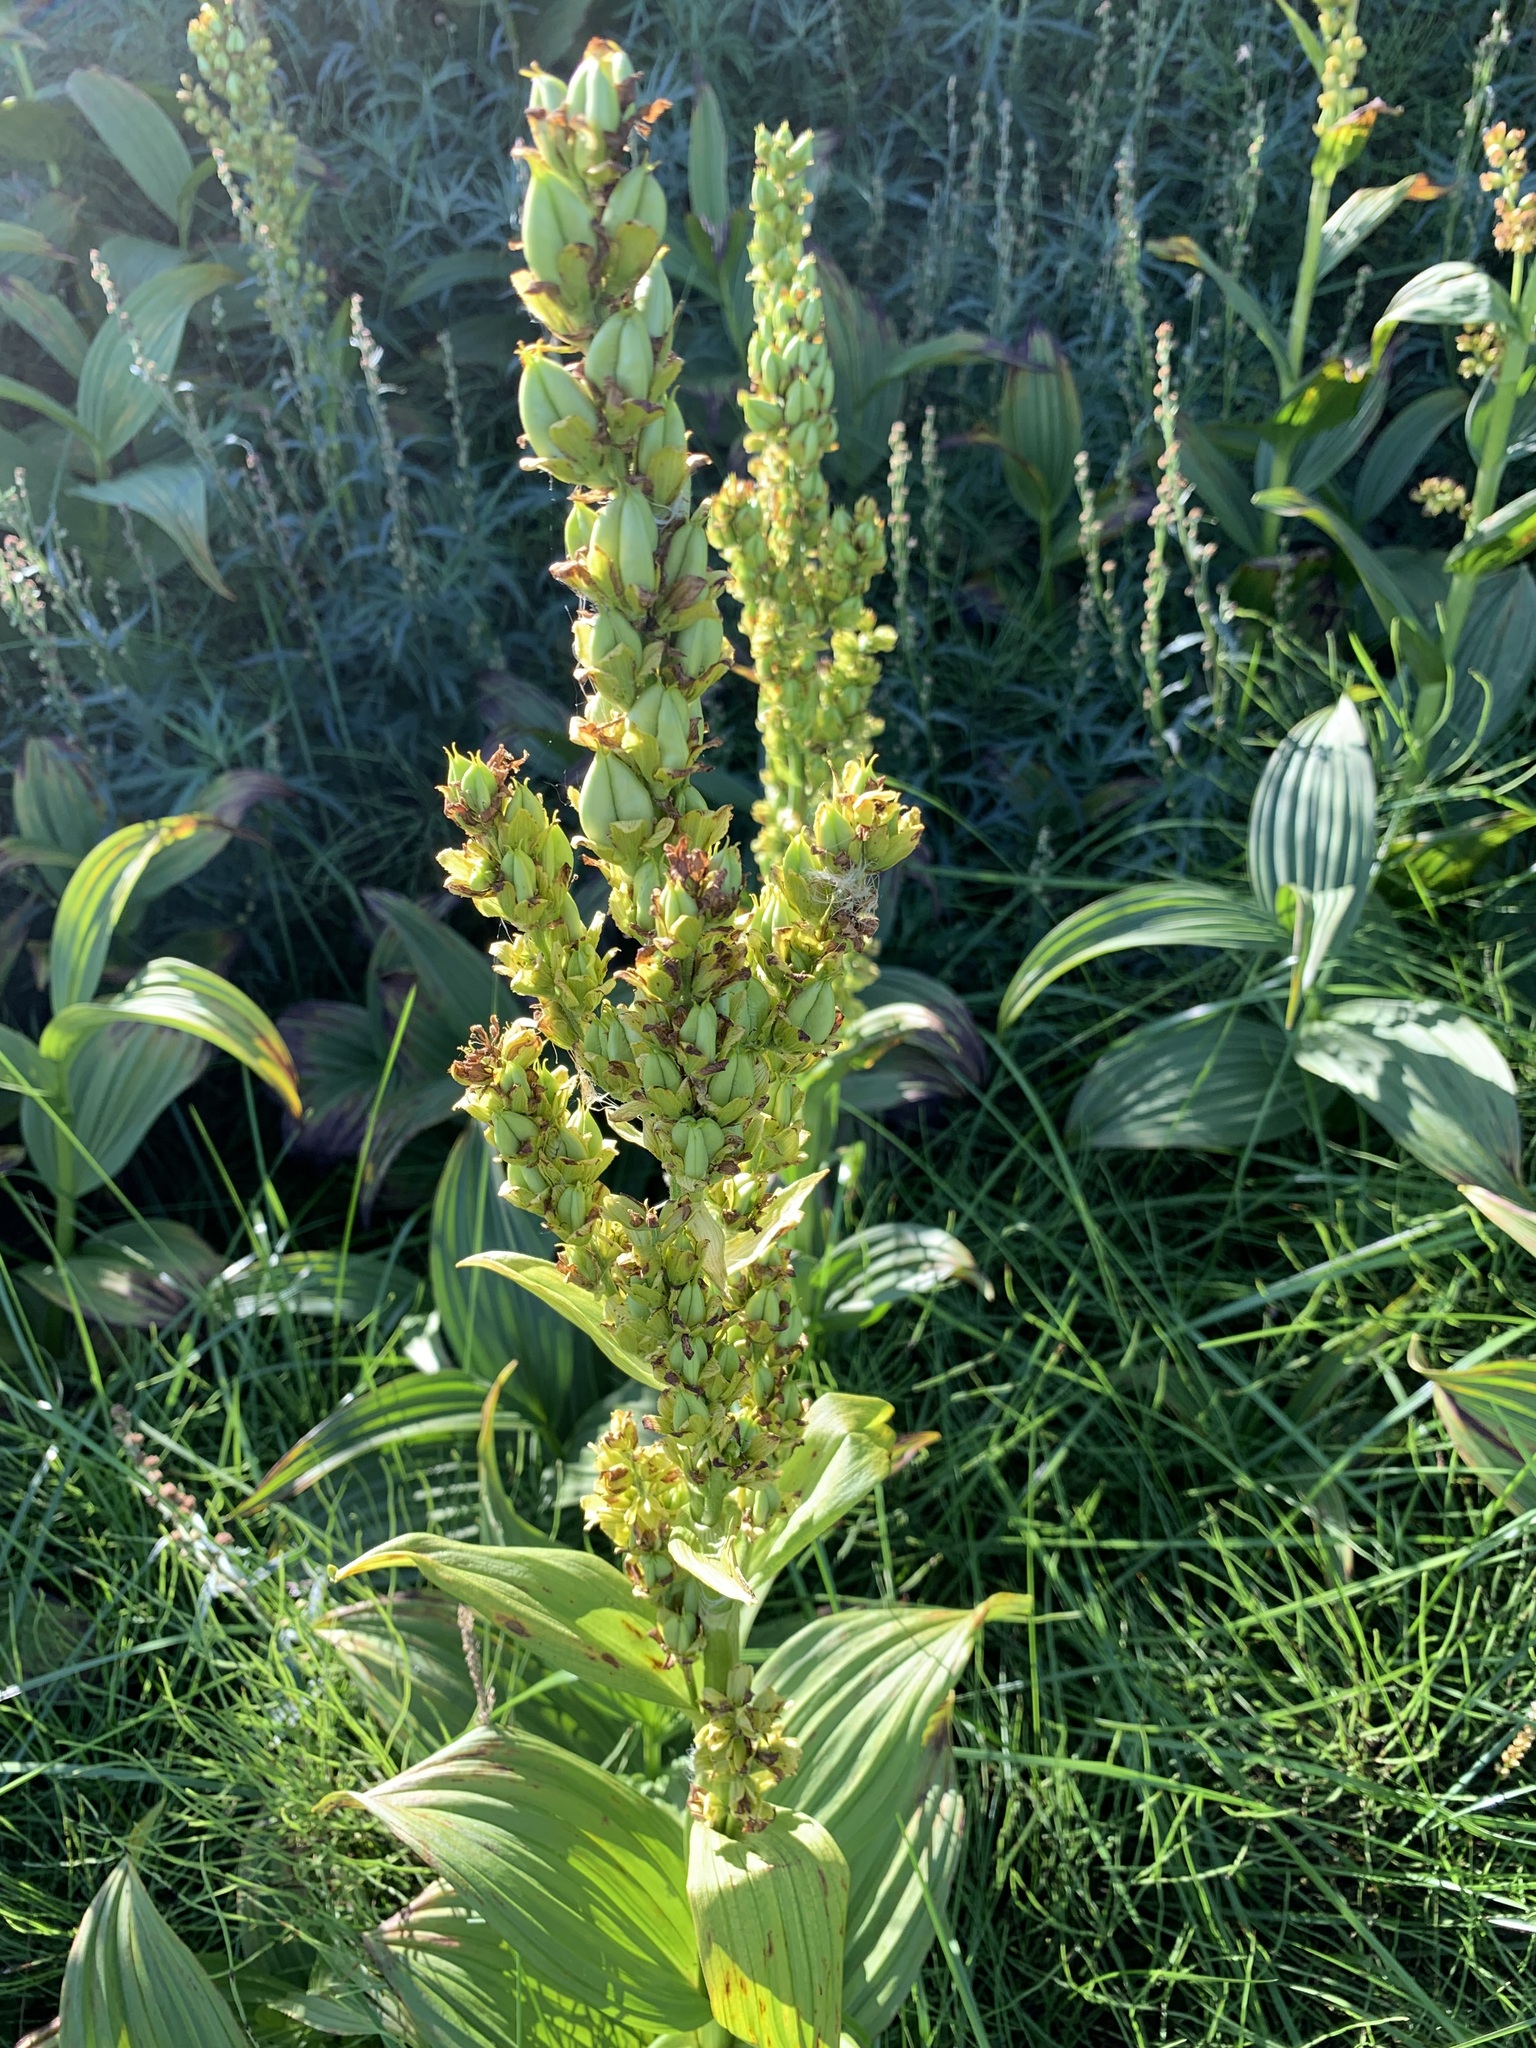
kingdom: Plantae
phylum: Tracheophyta
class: Liliopsida
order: Liliales
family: Melanthiaceae
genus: Veratrum
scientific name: Veratrum lobelianum
